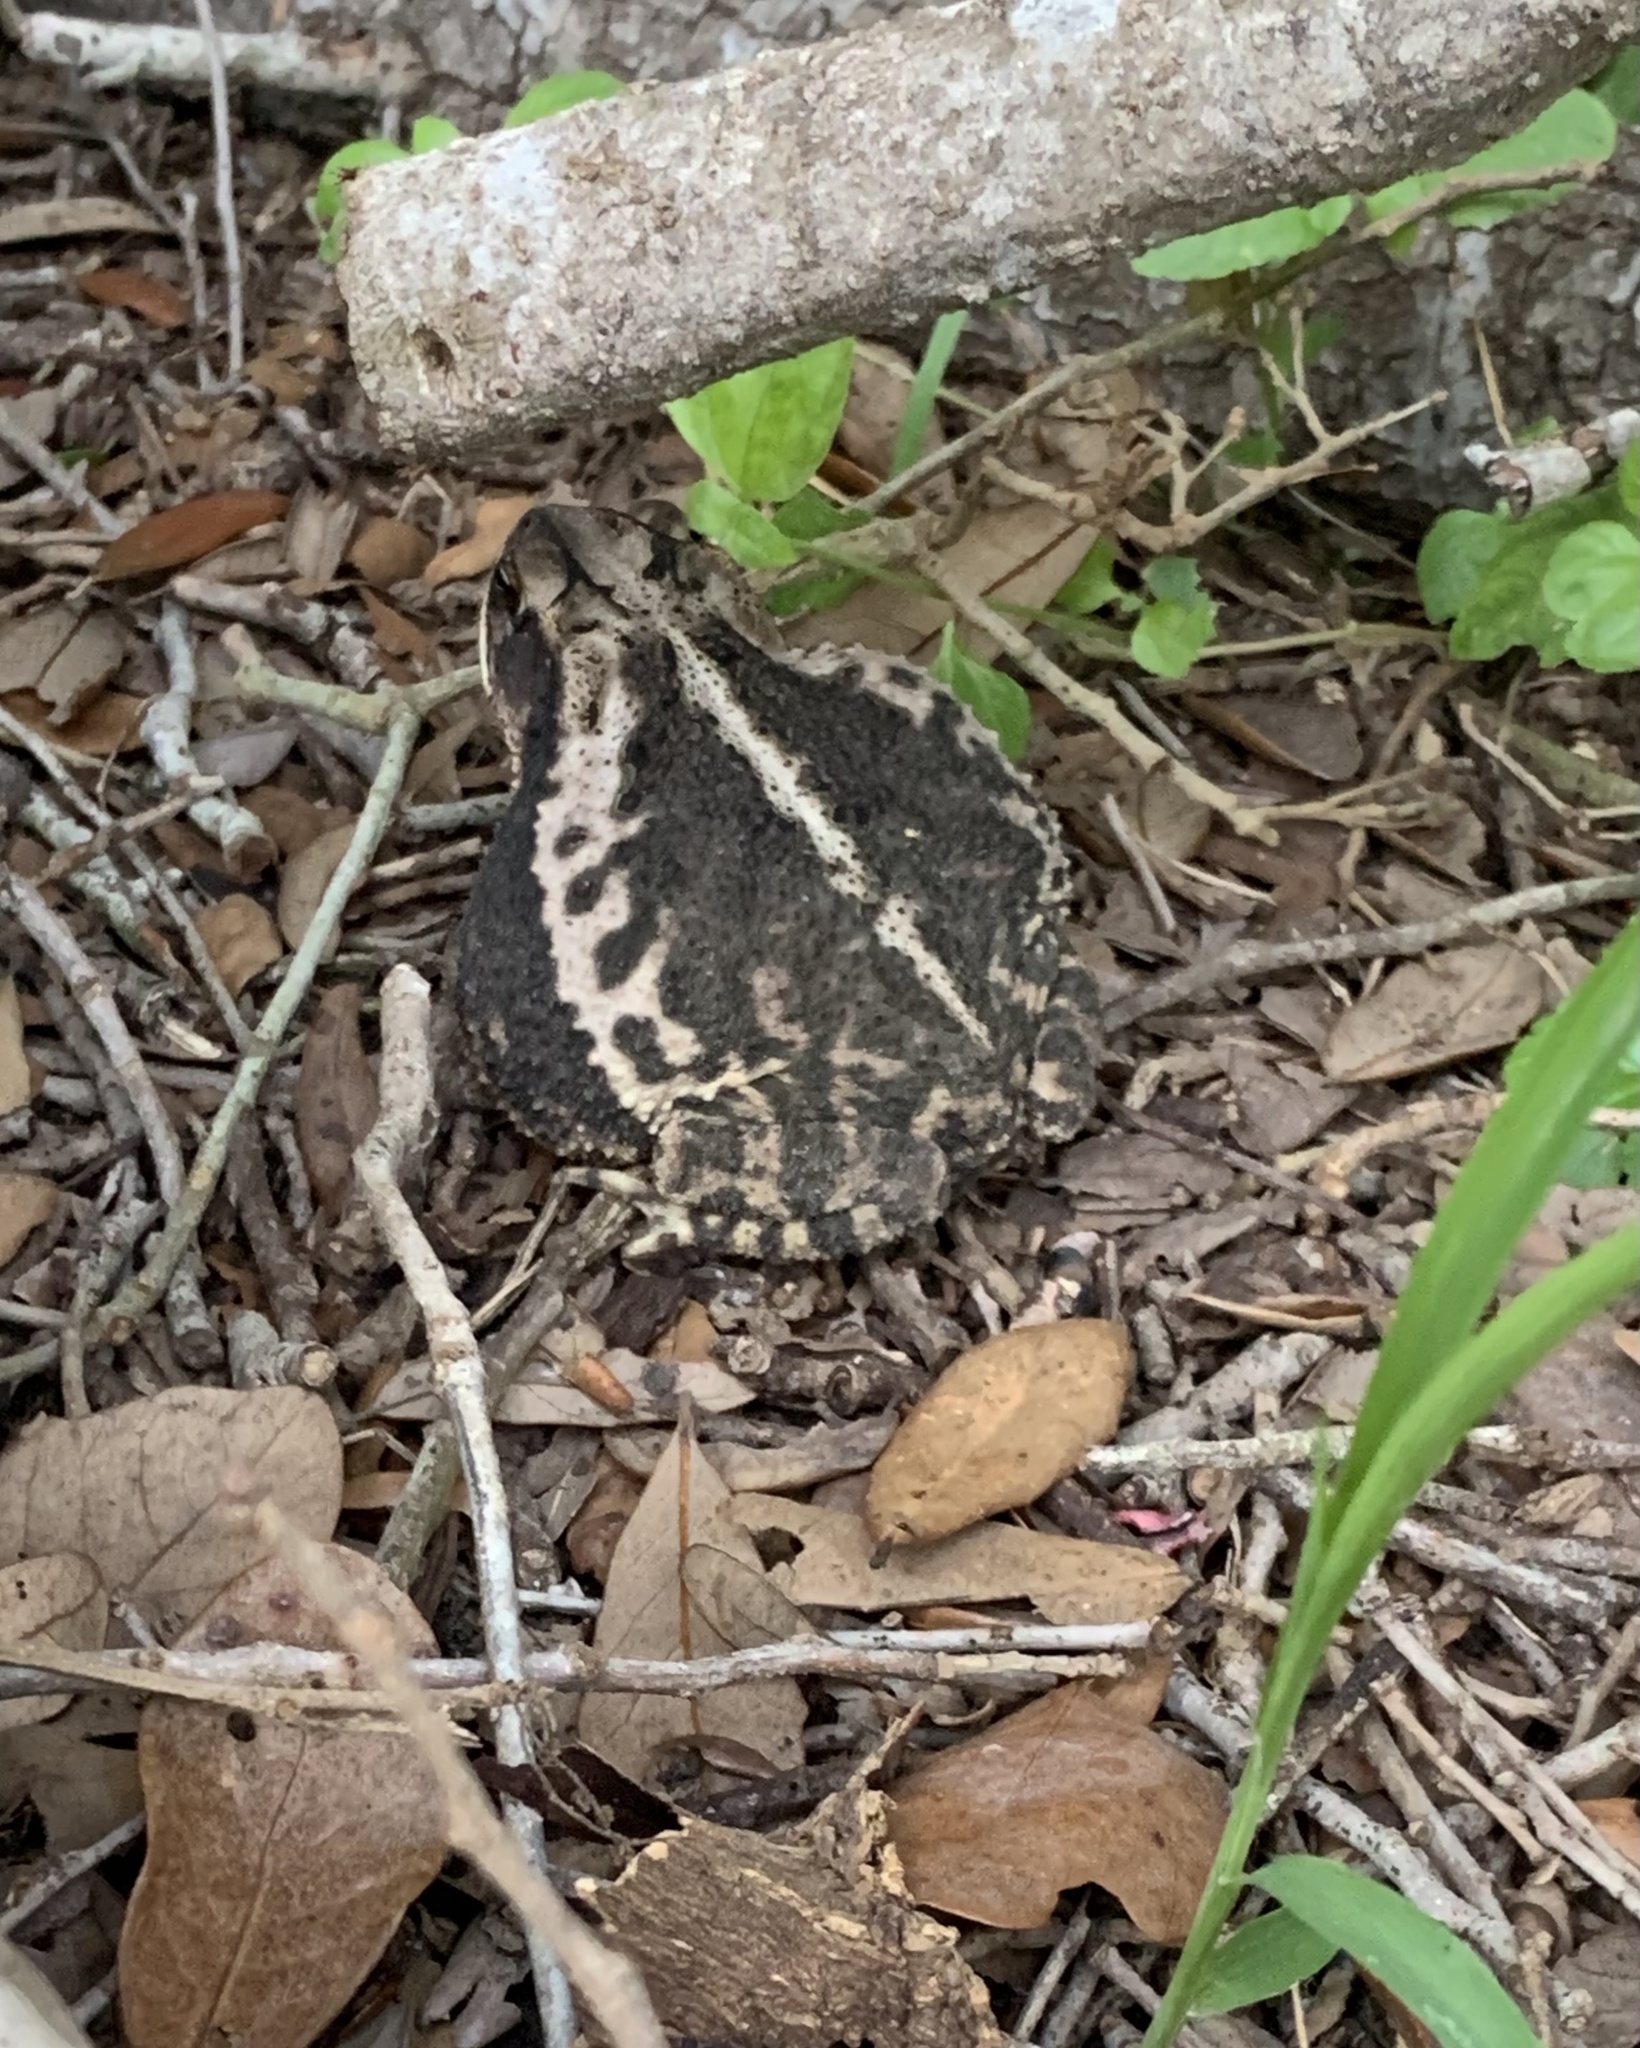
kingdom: Animalia
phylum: Chordata
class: Amphibia
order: Anura
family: Bufonidae
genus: Incilius
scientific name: Incilius nebulifer
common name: Gulf coast toad
